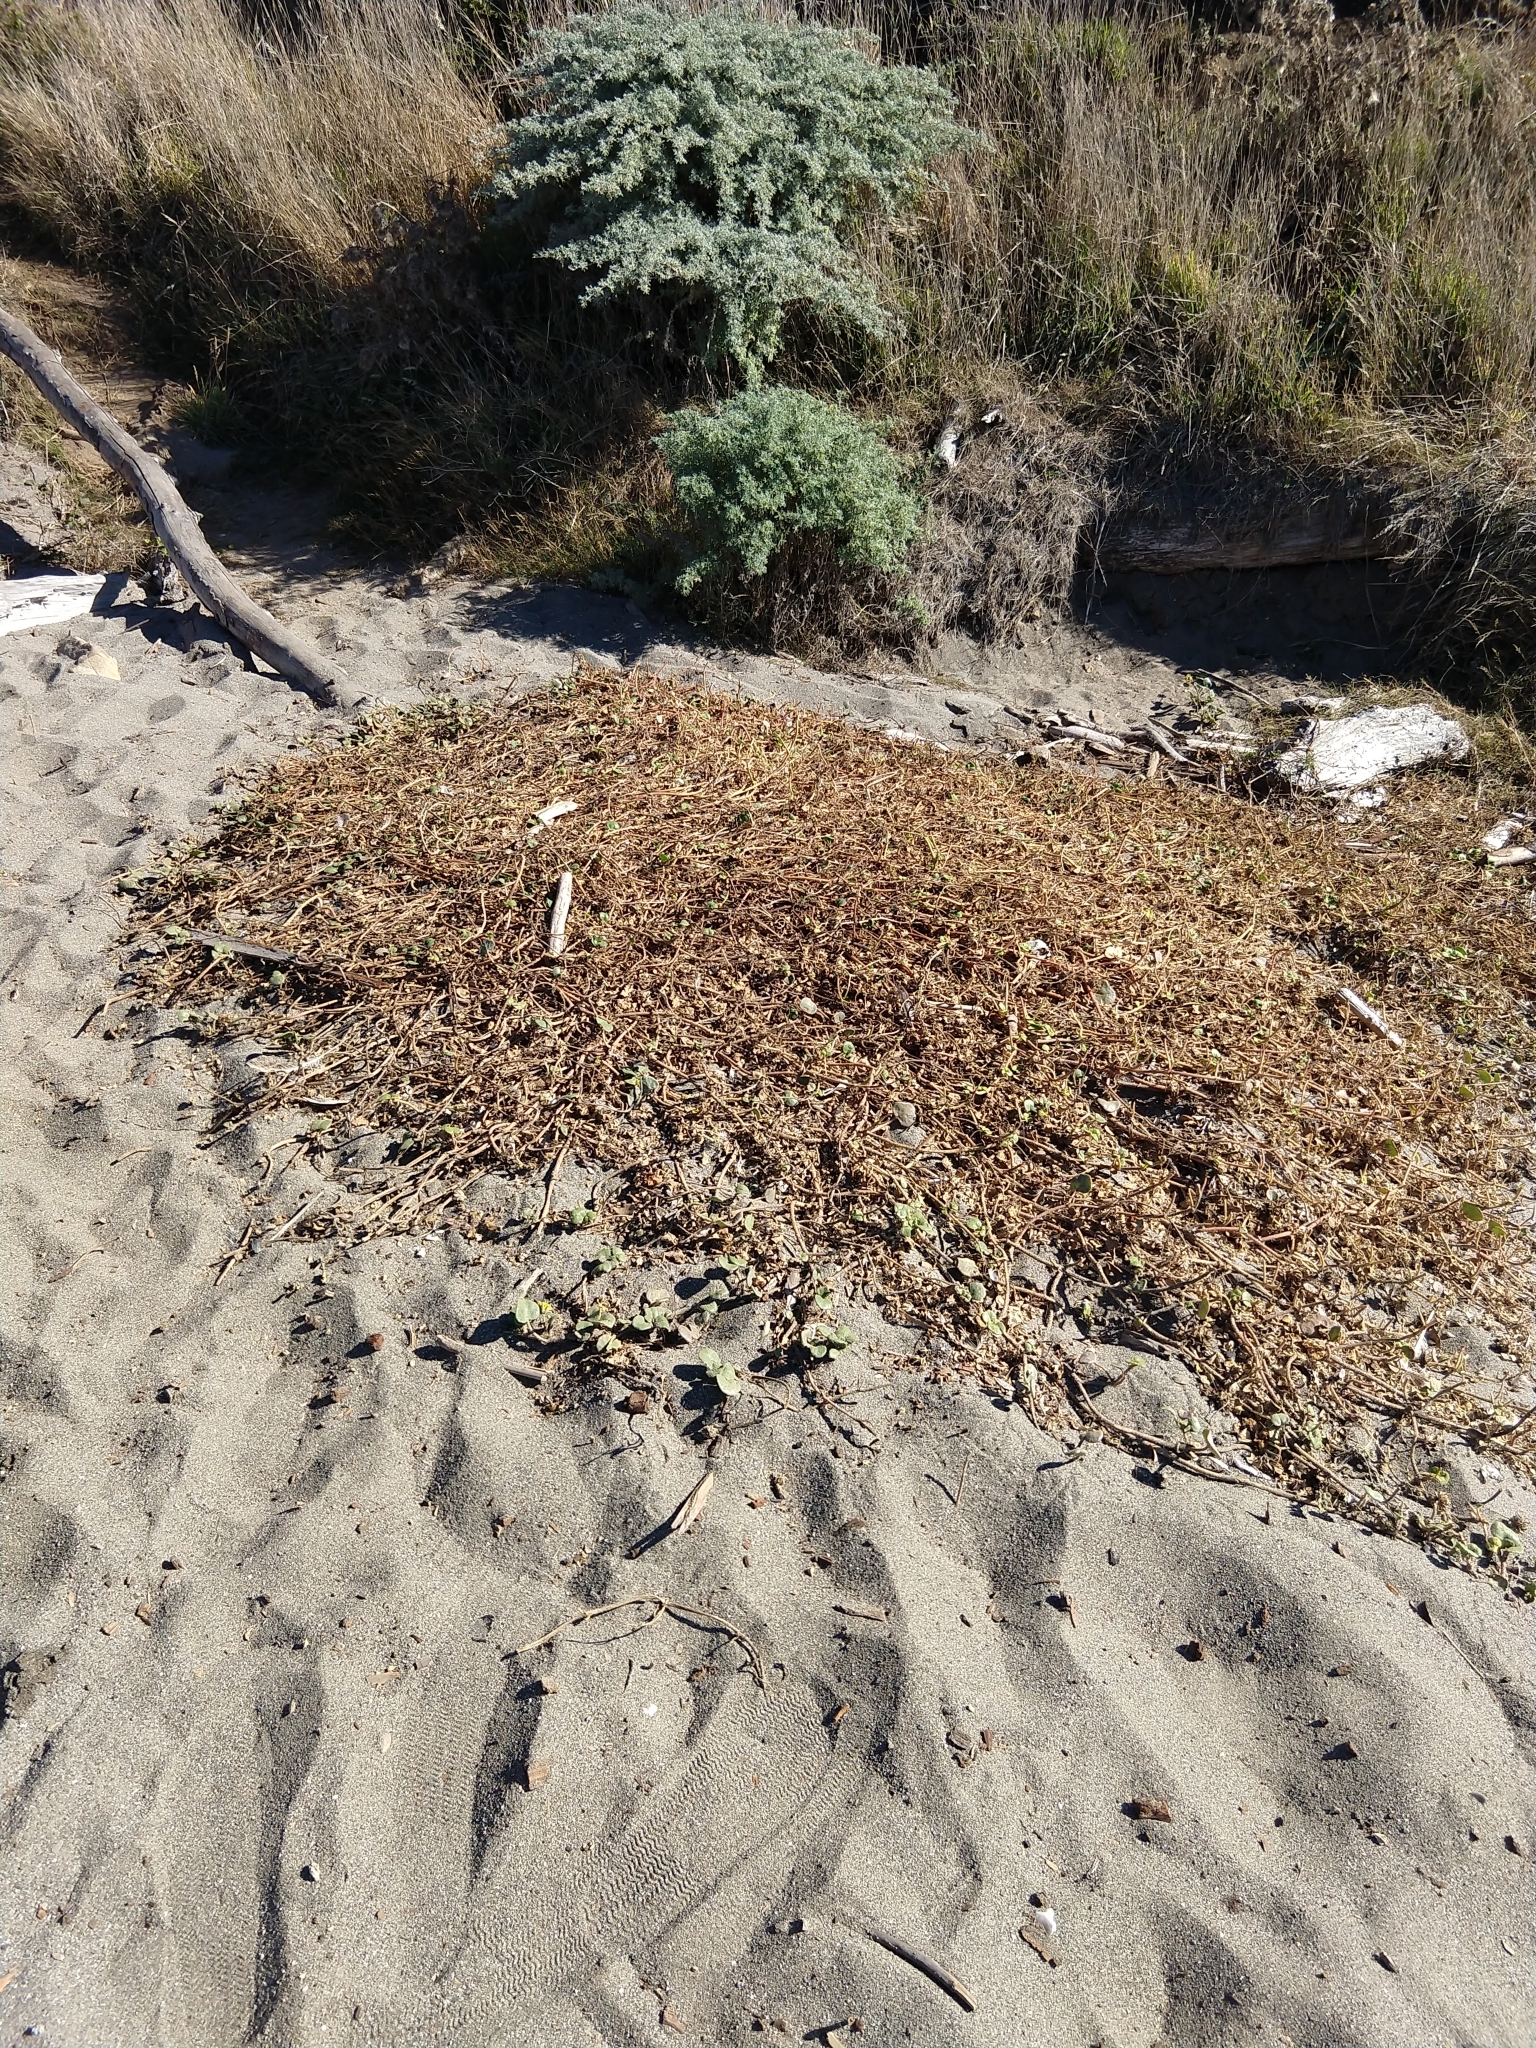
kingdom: Plantae
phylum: Tracheophyta
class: Magnoliopsida
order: Caryophyllales
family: Nyctaginaceae
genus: Abronia
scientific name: Abronia latifolia
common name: Yellow sand-verbena
